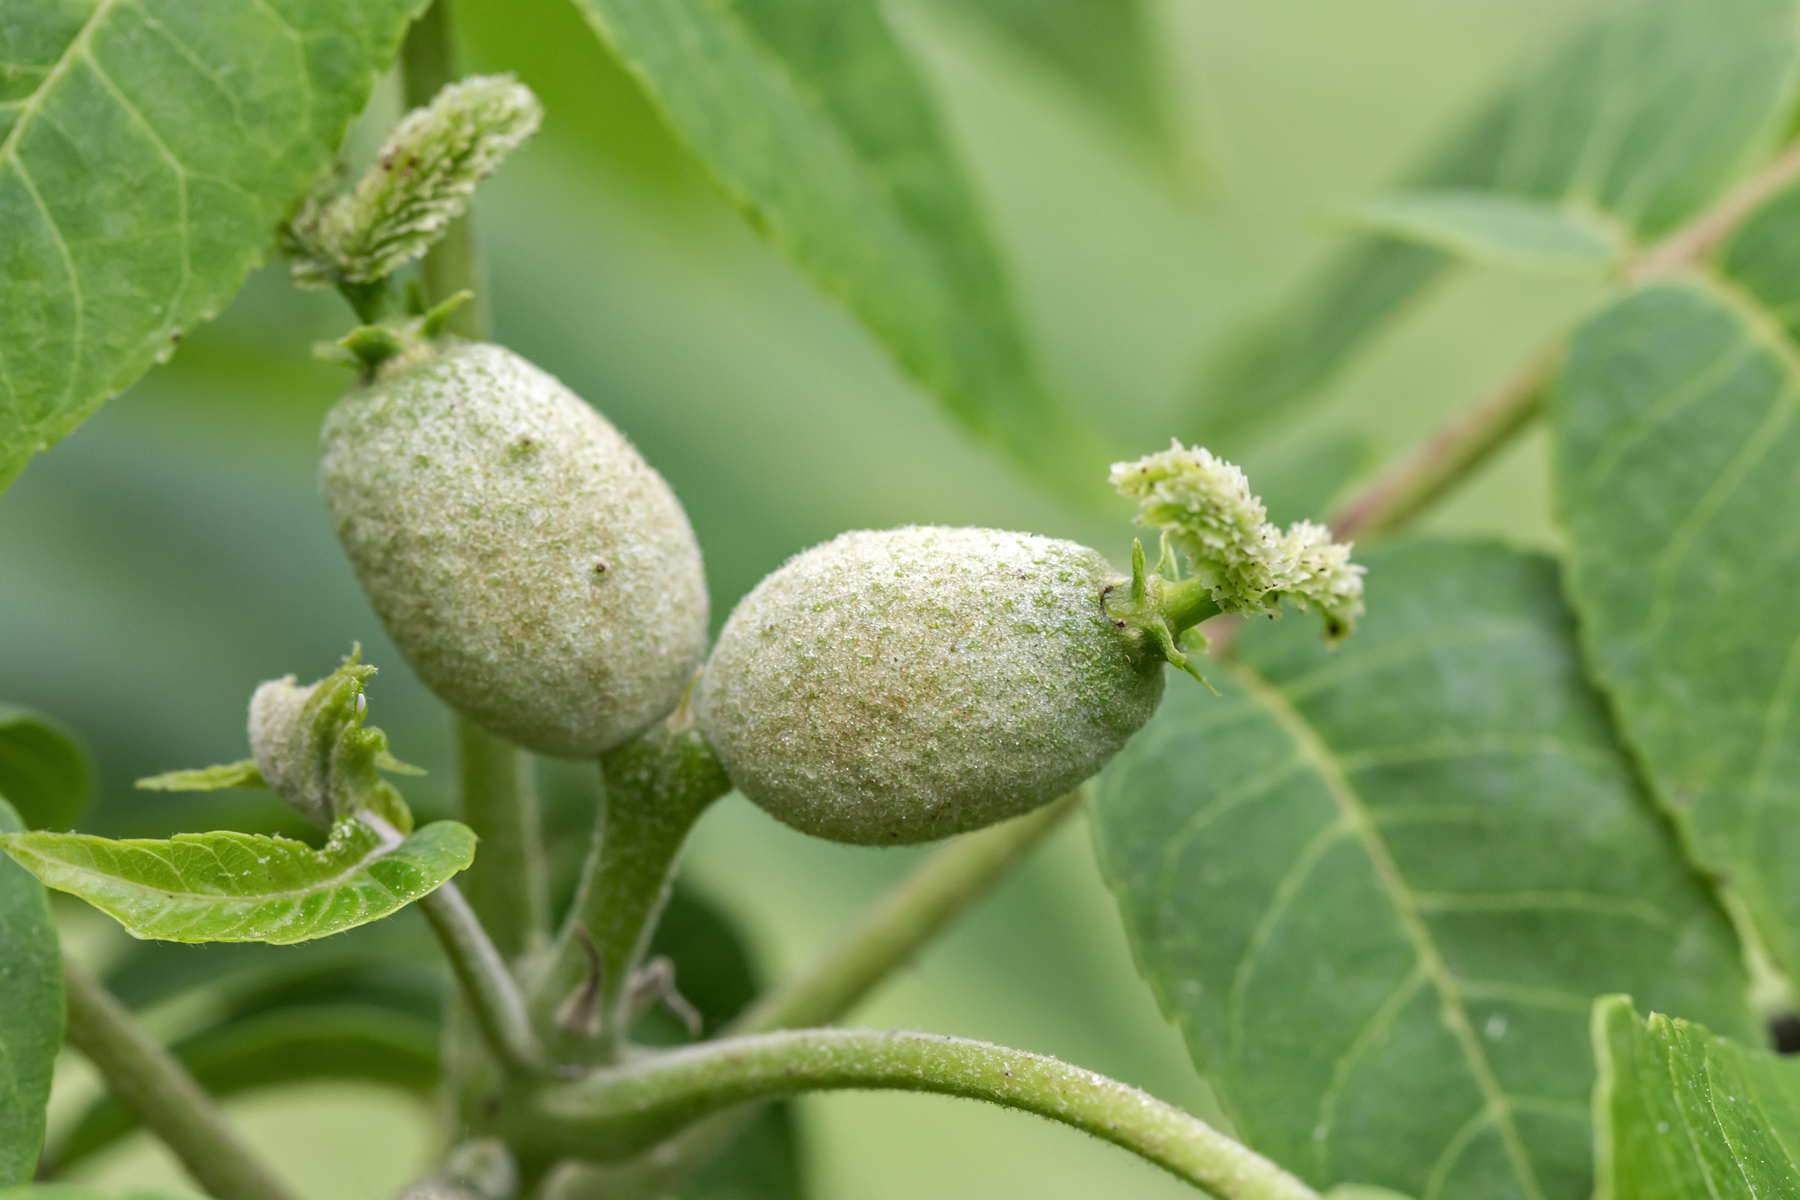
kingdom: Plantae
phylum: Tracheophyta
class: Magnoliopsida
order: Fagales
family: Juglandaceae
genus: Juglans
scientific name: Juglans nigra
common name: Black walnut
